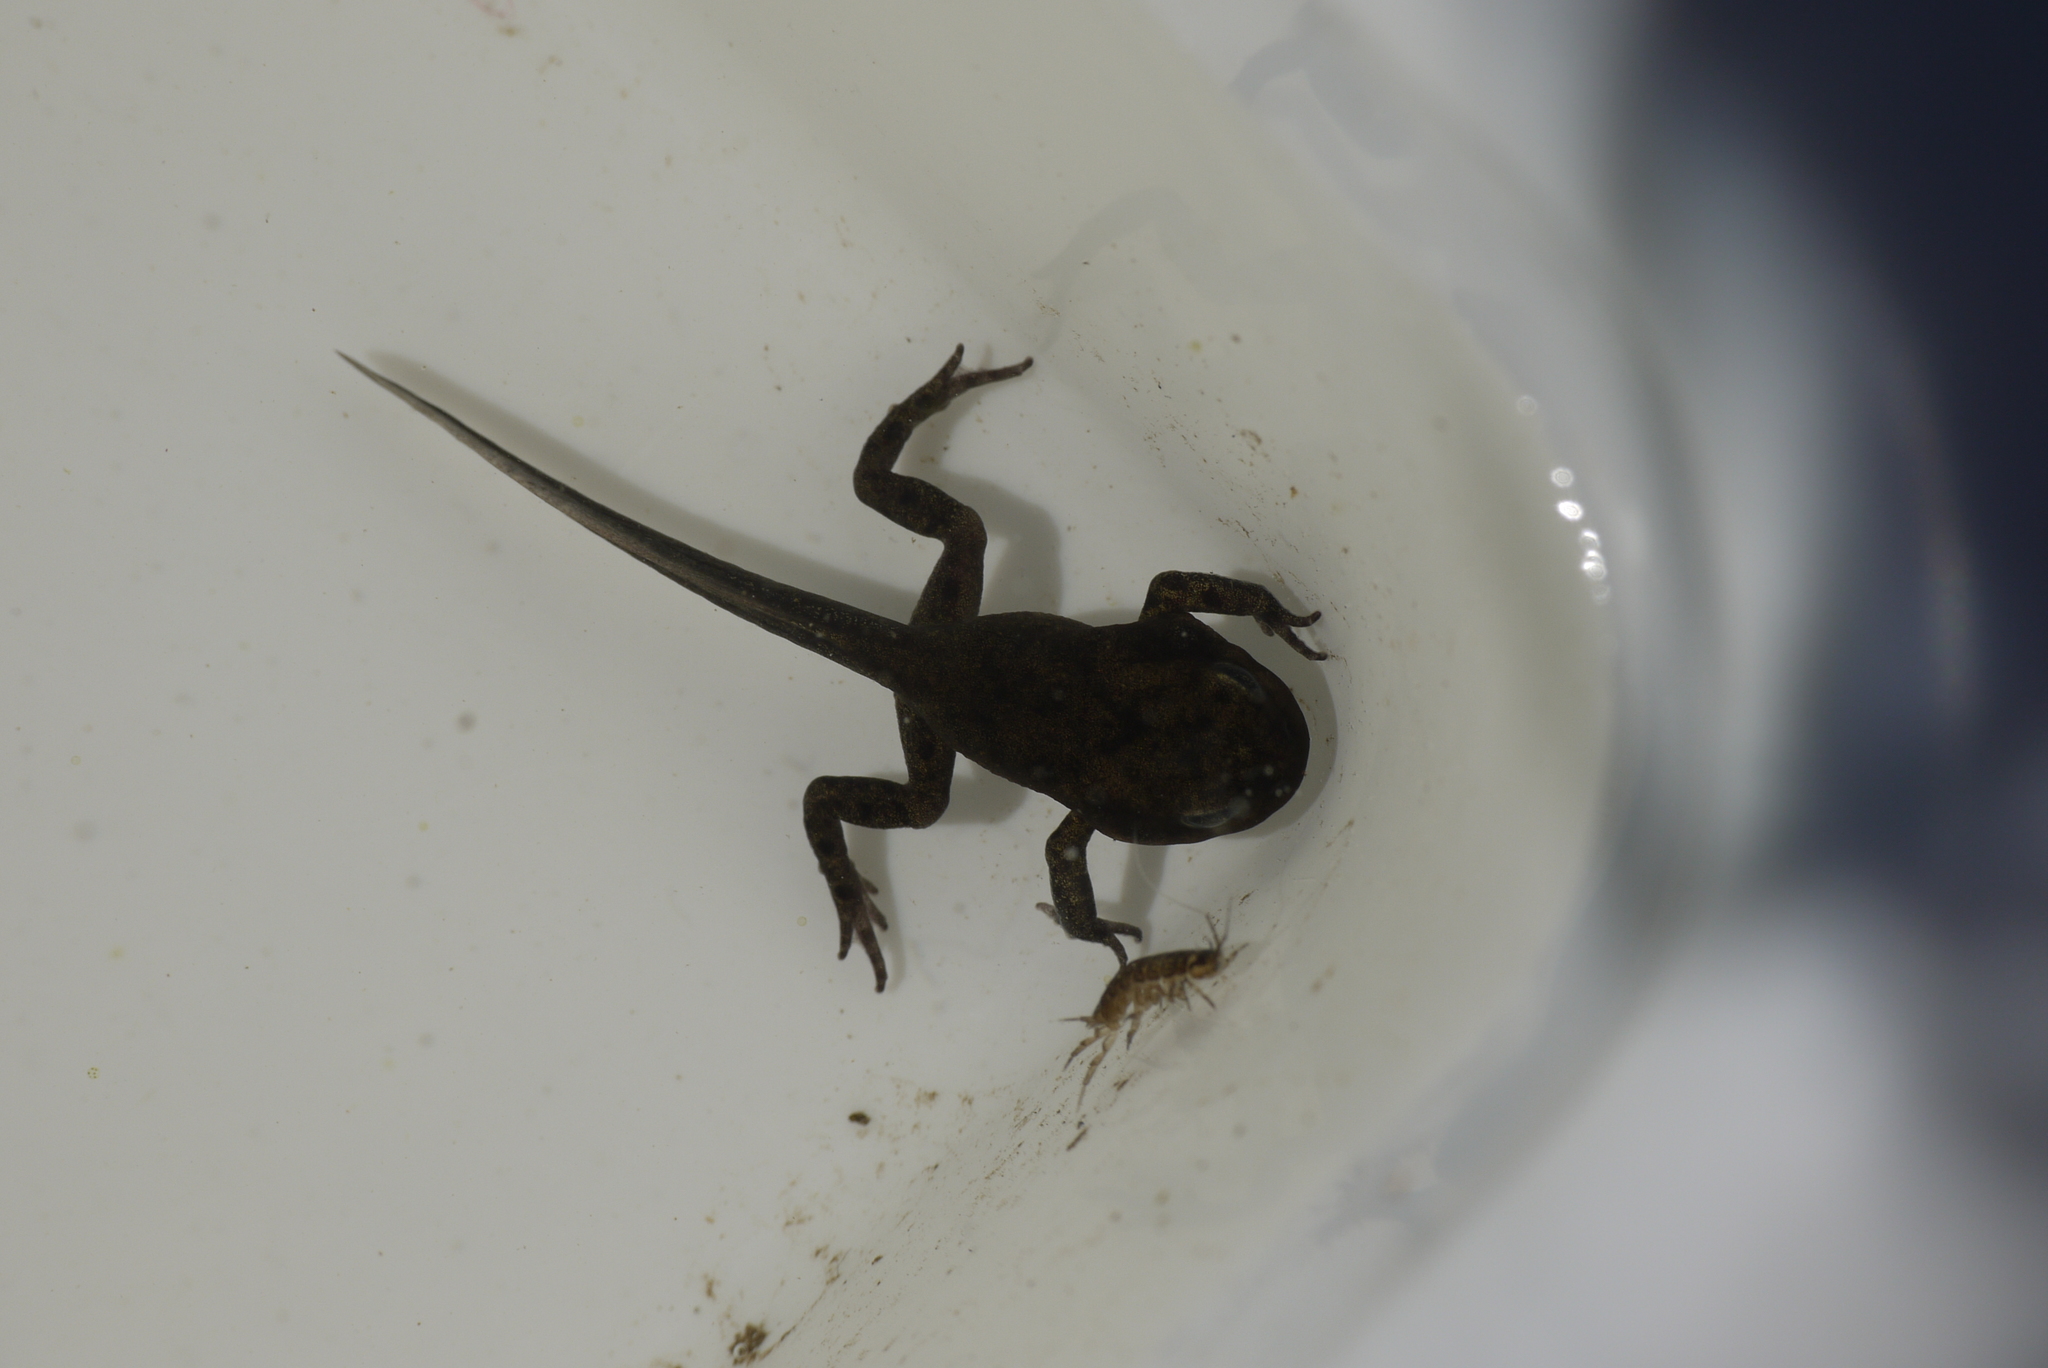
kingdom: Animalia
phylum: Chordata
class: Amphibia
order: Anura
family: Bufonidae
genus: Bufo
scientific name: Bufo bufo
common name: Common toad
